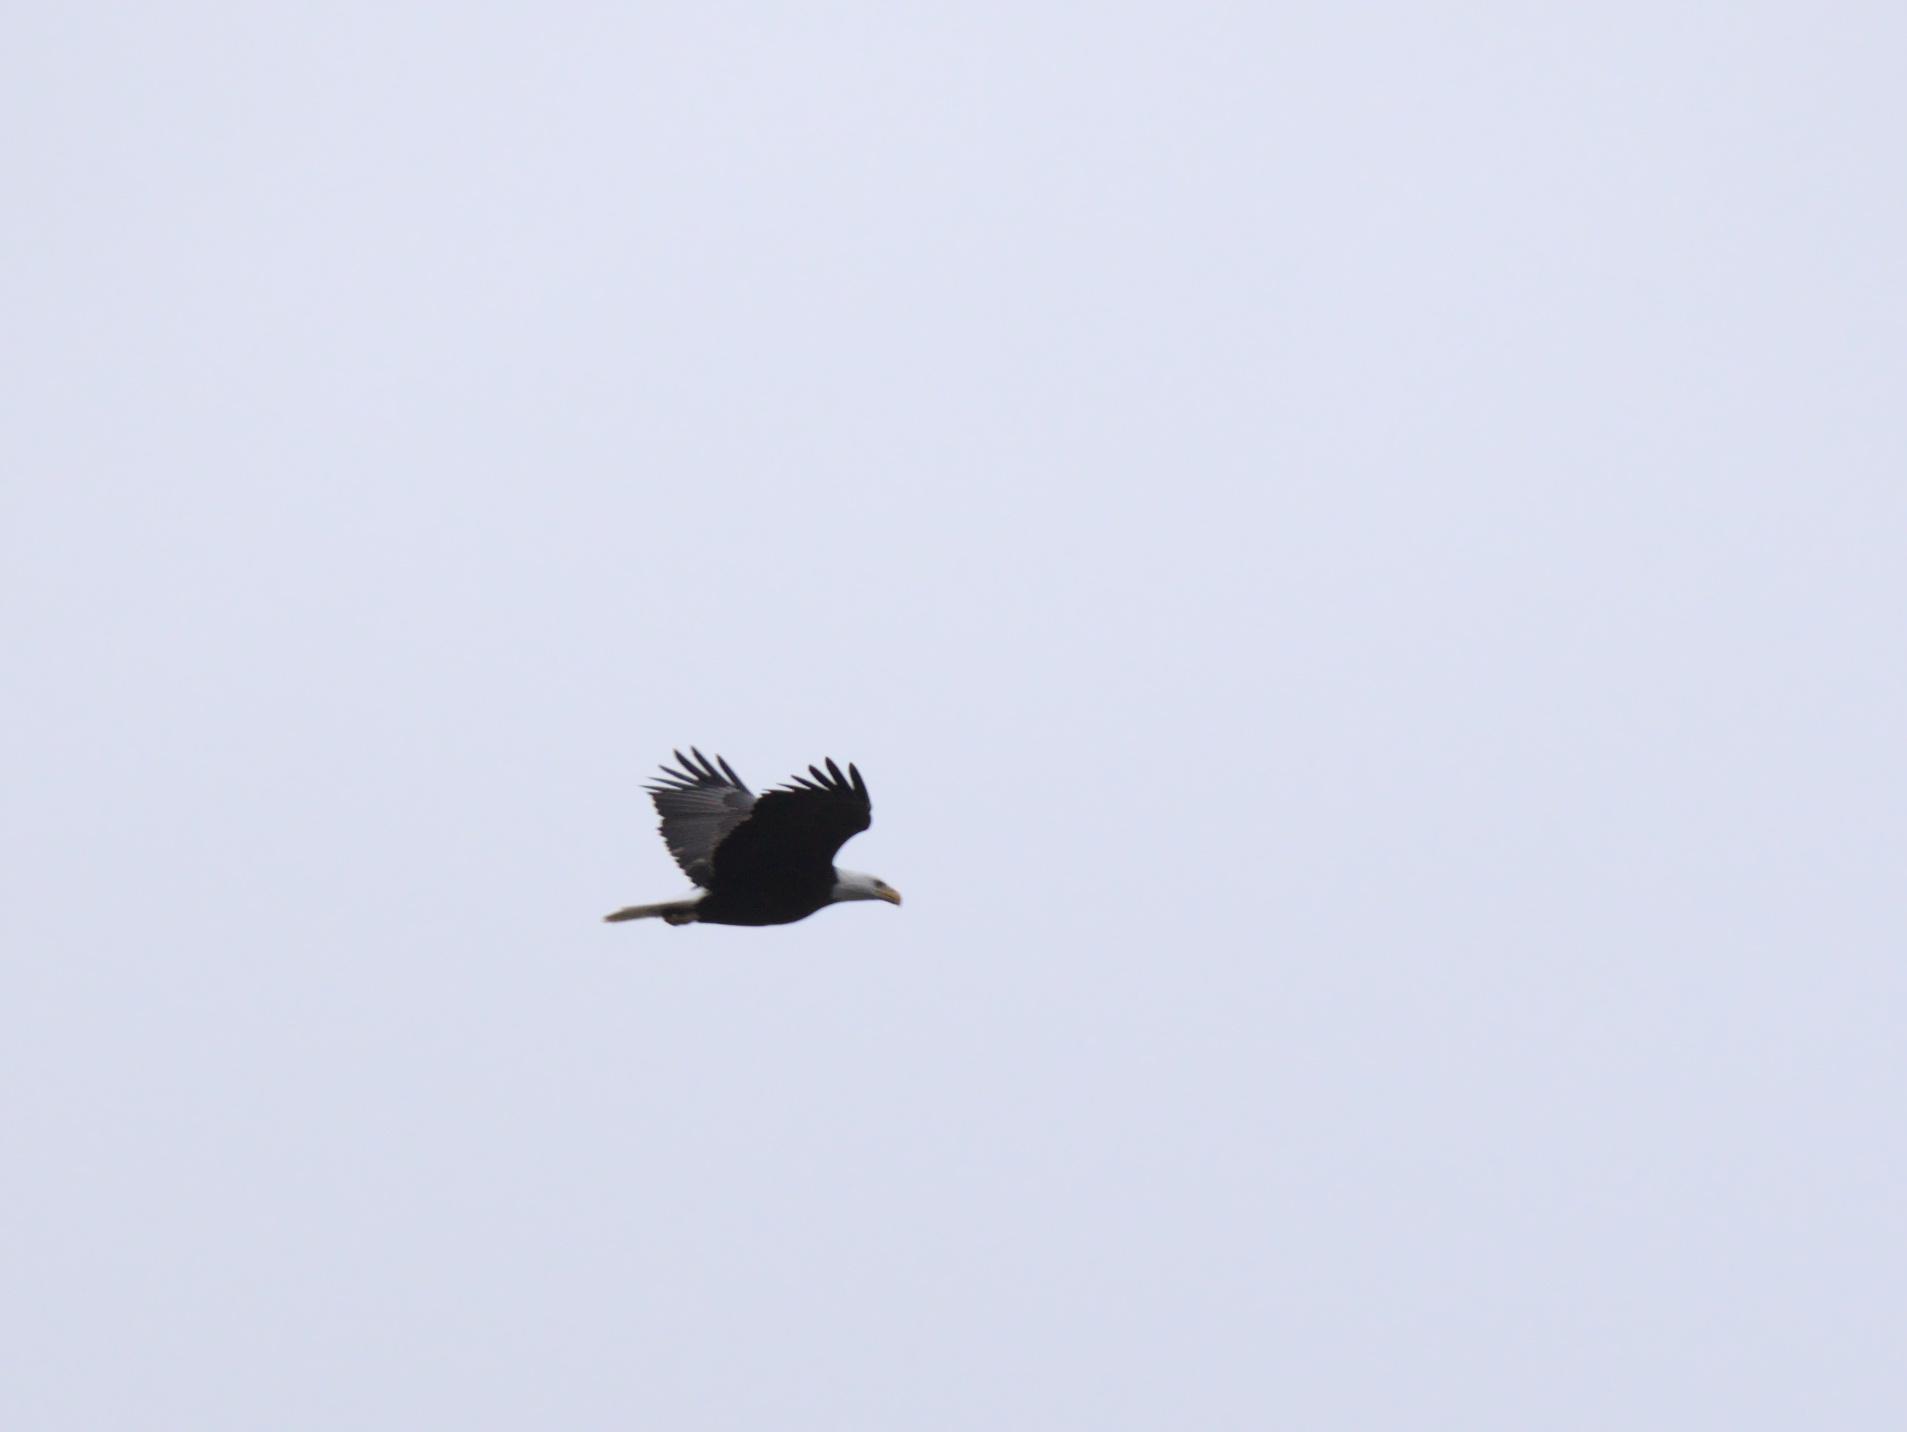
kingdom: Animalia
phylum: Chordata
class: Aves
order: Accipitriformes
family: Accipitridae
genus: Haliaeetus
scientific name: Haliaeetus leucocephalus
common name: Bald eagle
